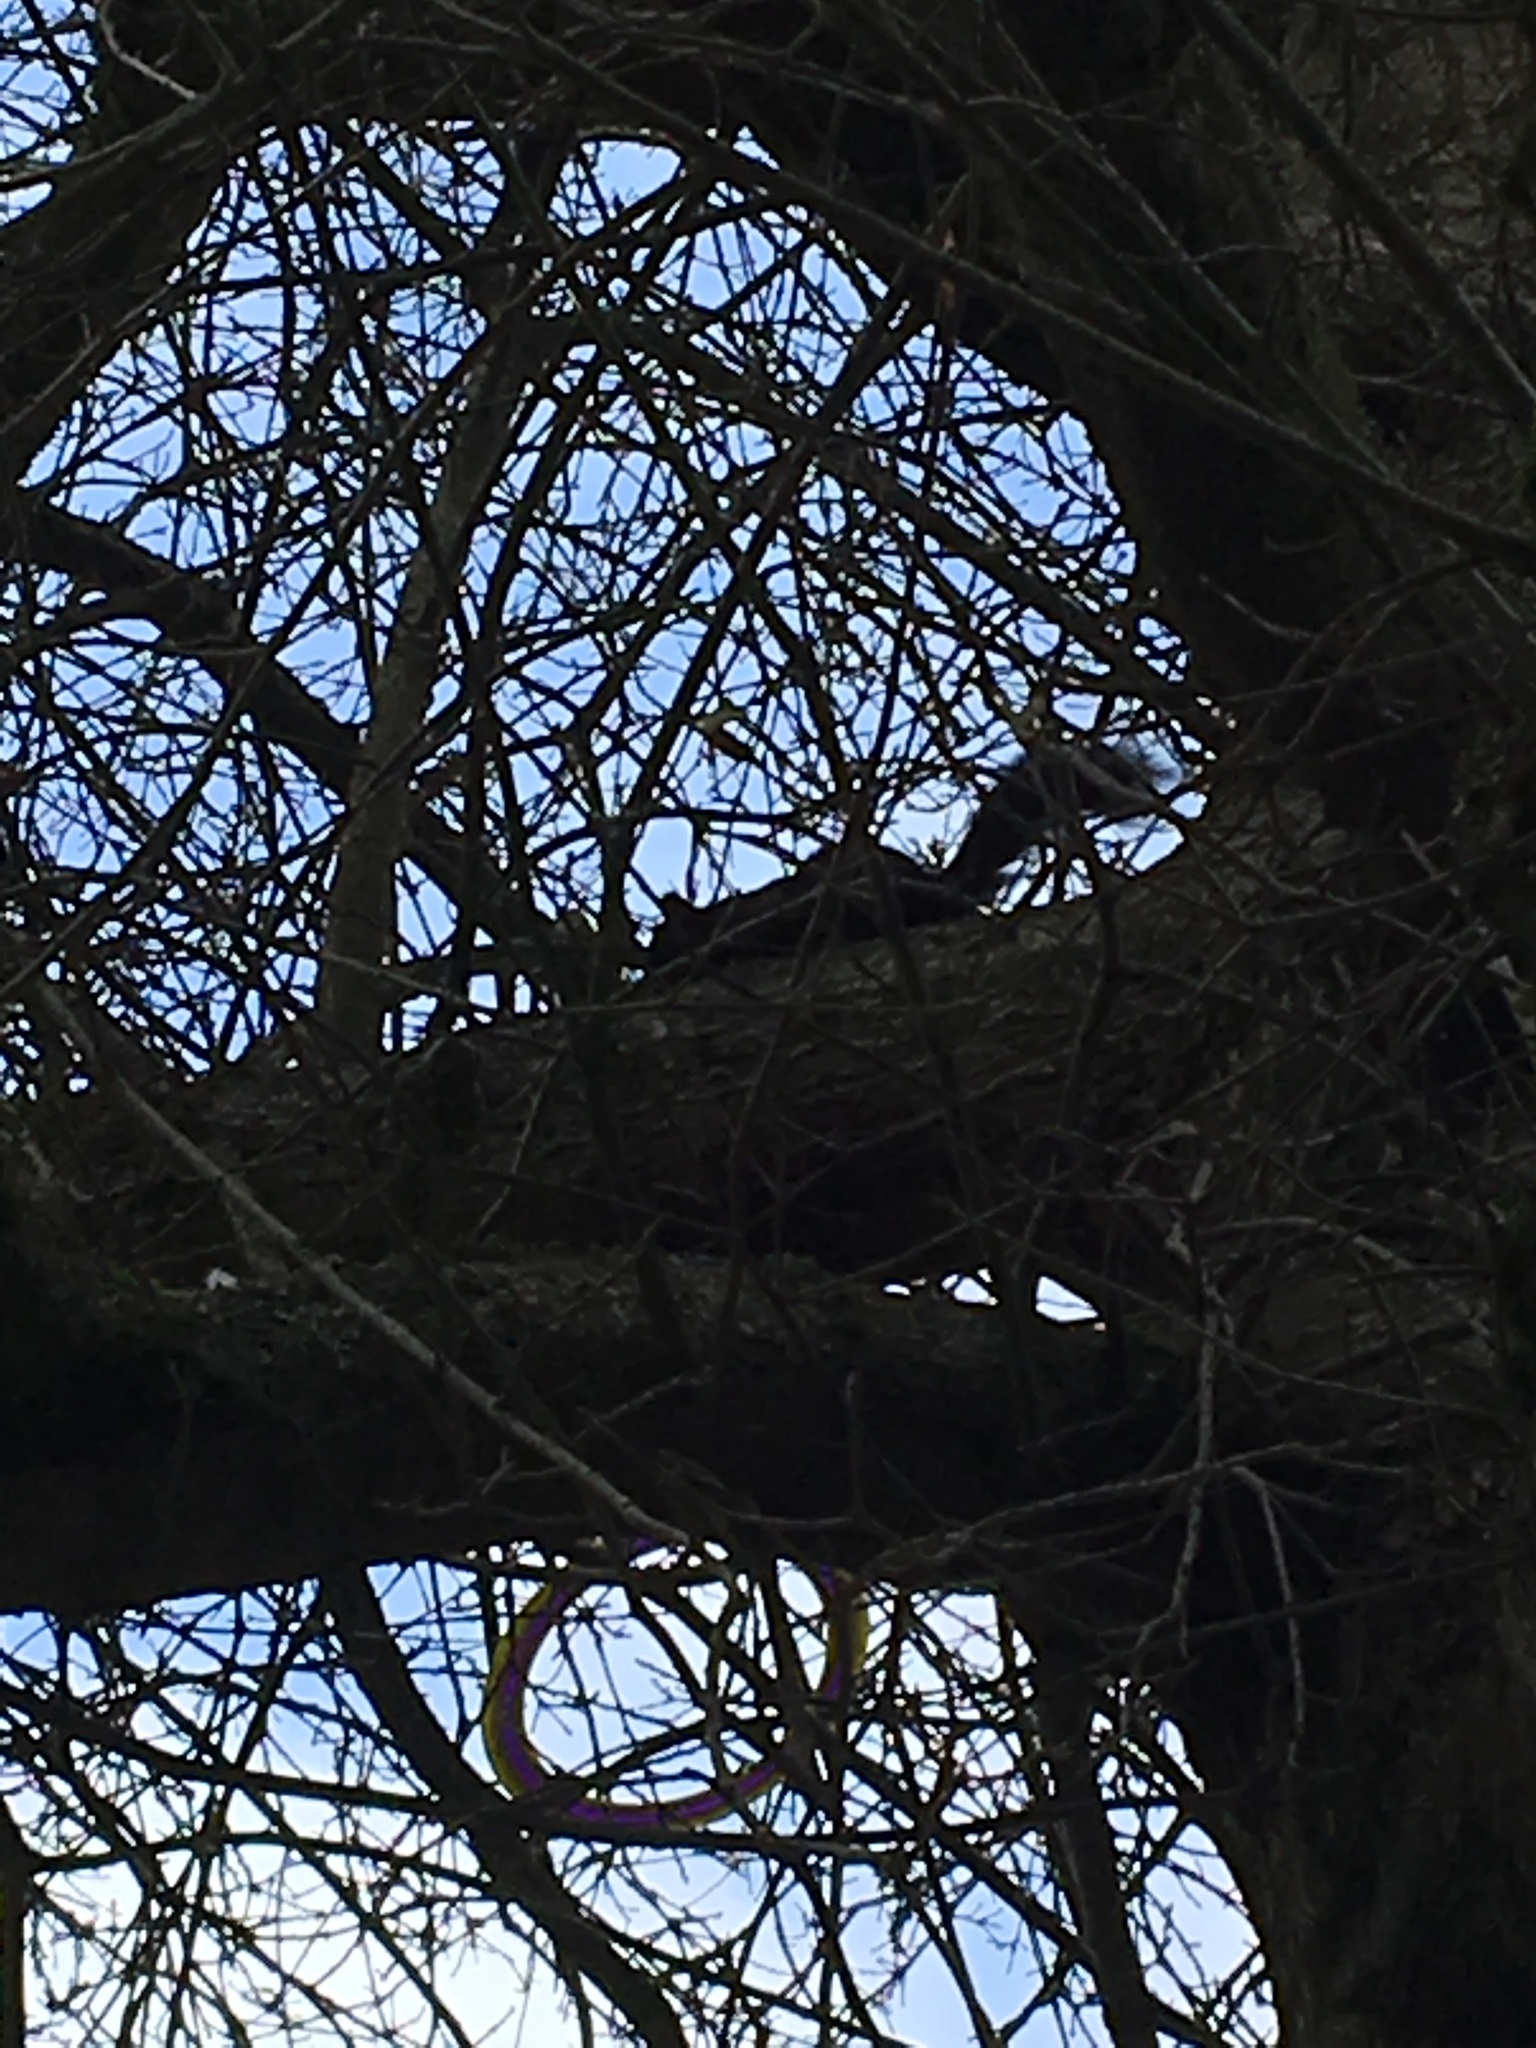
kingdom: Animalia
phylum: Chordata
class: Mammalia
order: Rodentia
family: Sciuridae
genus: Sciurus
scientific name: Sciurus carolinensis
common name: Eastern gray squirrel
